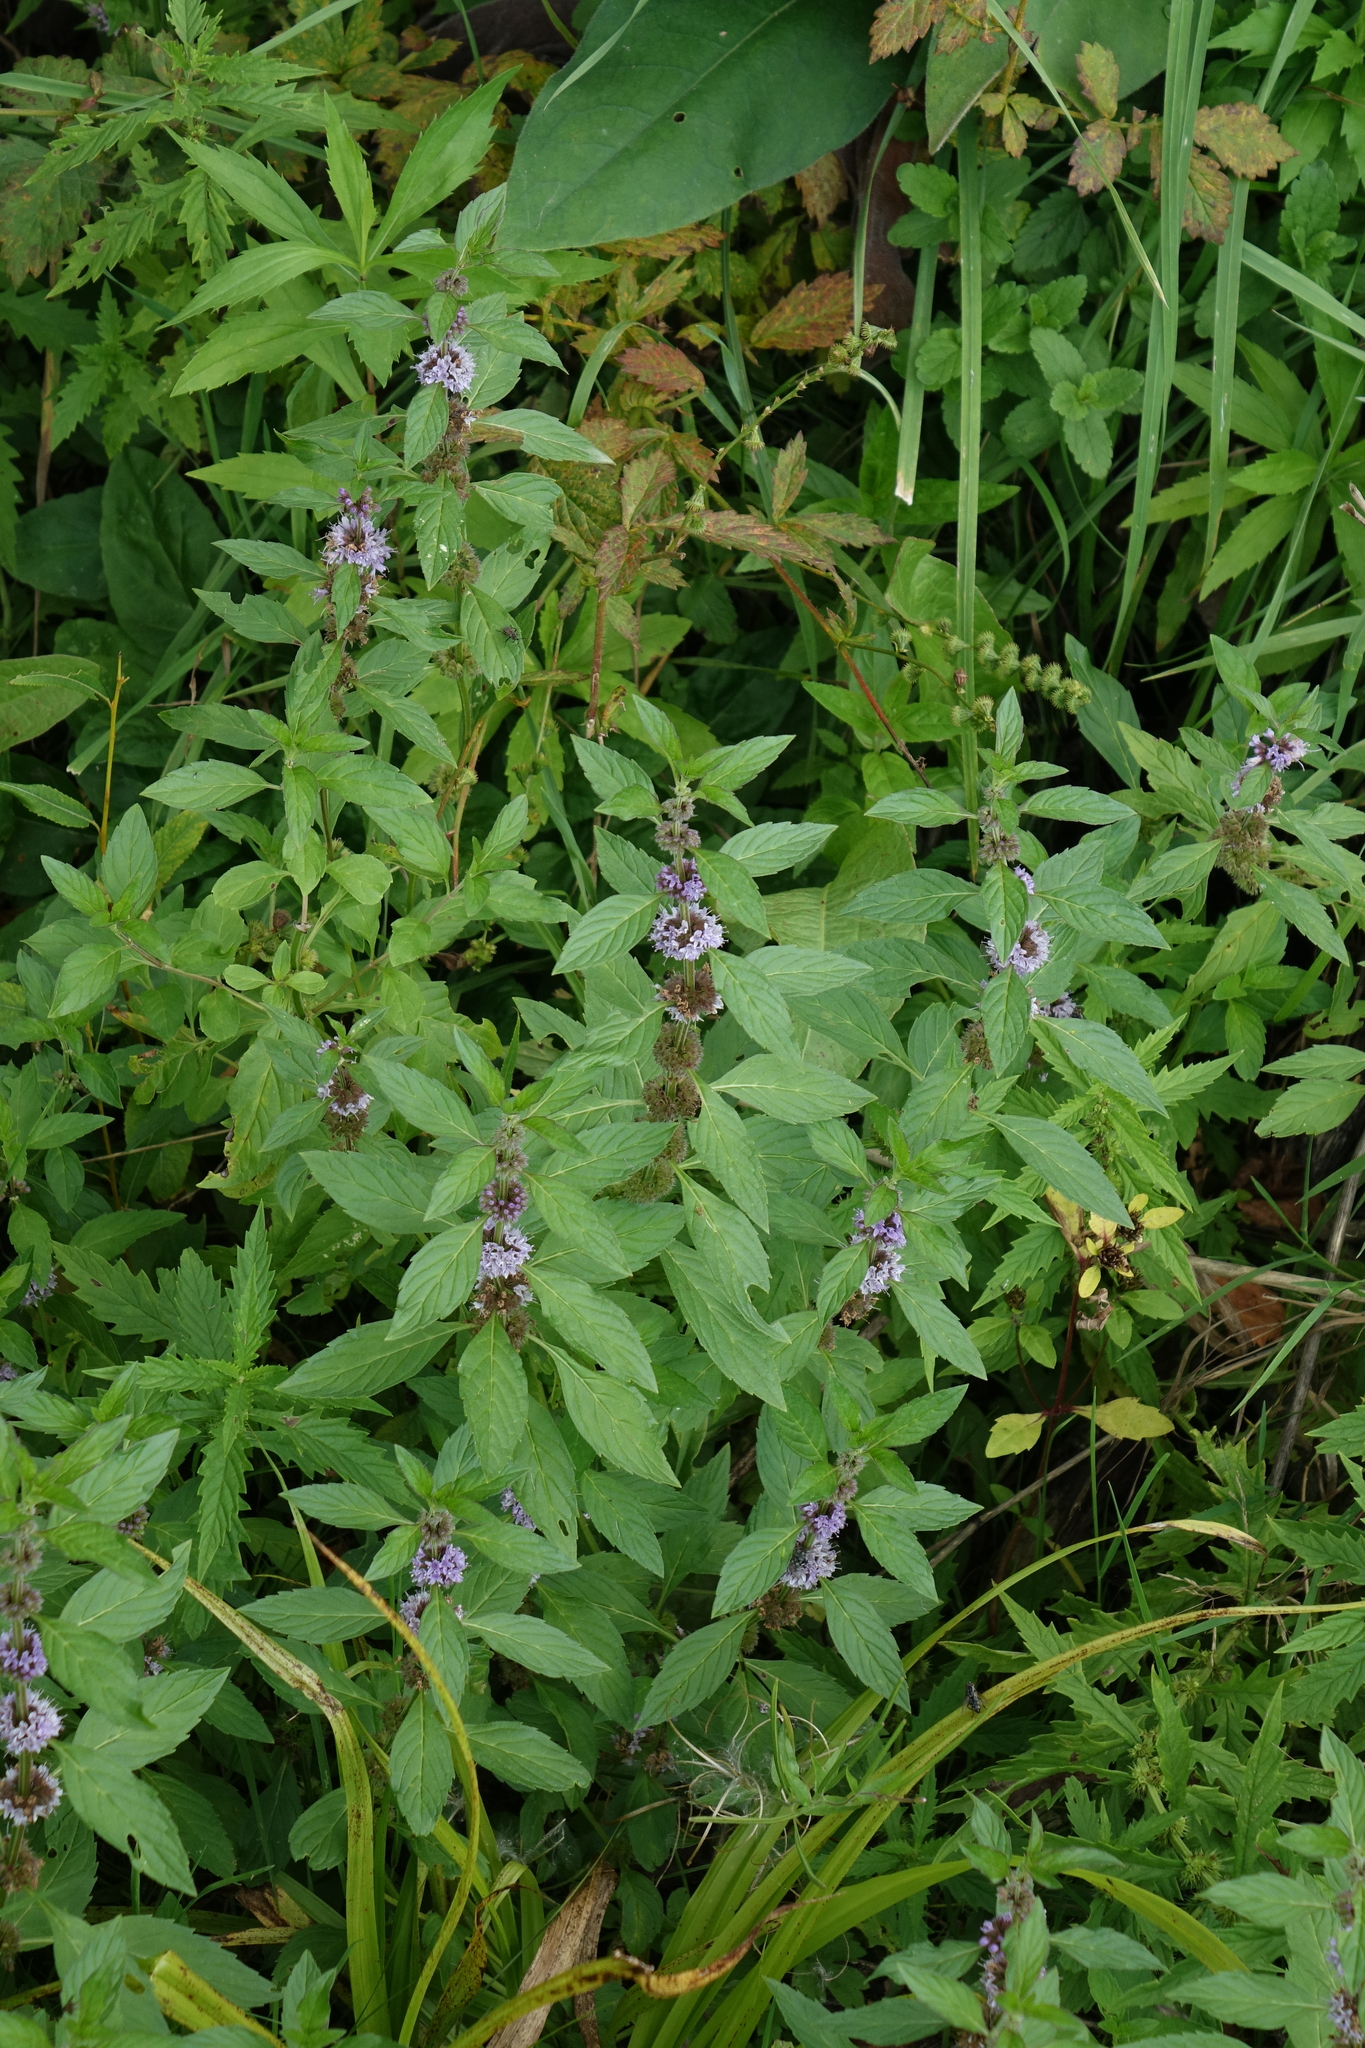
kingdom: Plantae
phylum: Tracheophyta
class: Magnoliopsida
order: Lamiales
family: Lamiaceae
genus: Mentha
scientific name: Mentha arvensis
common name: Corn mint
